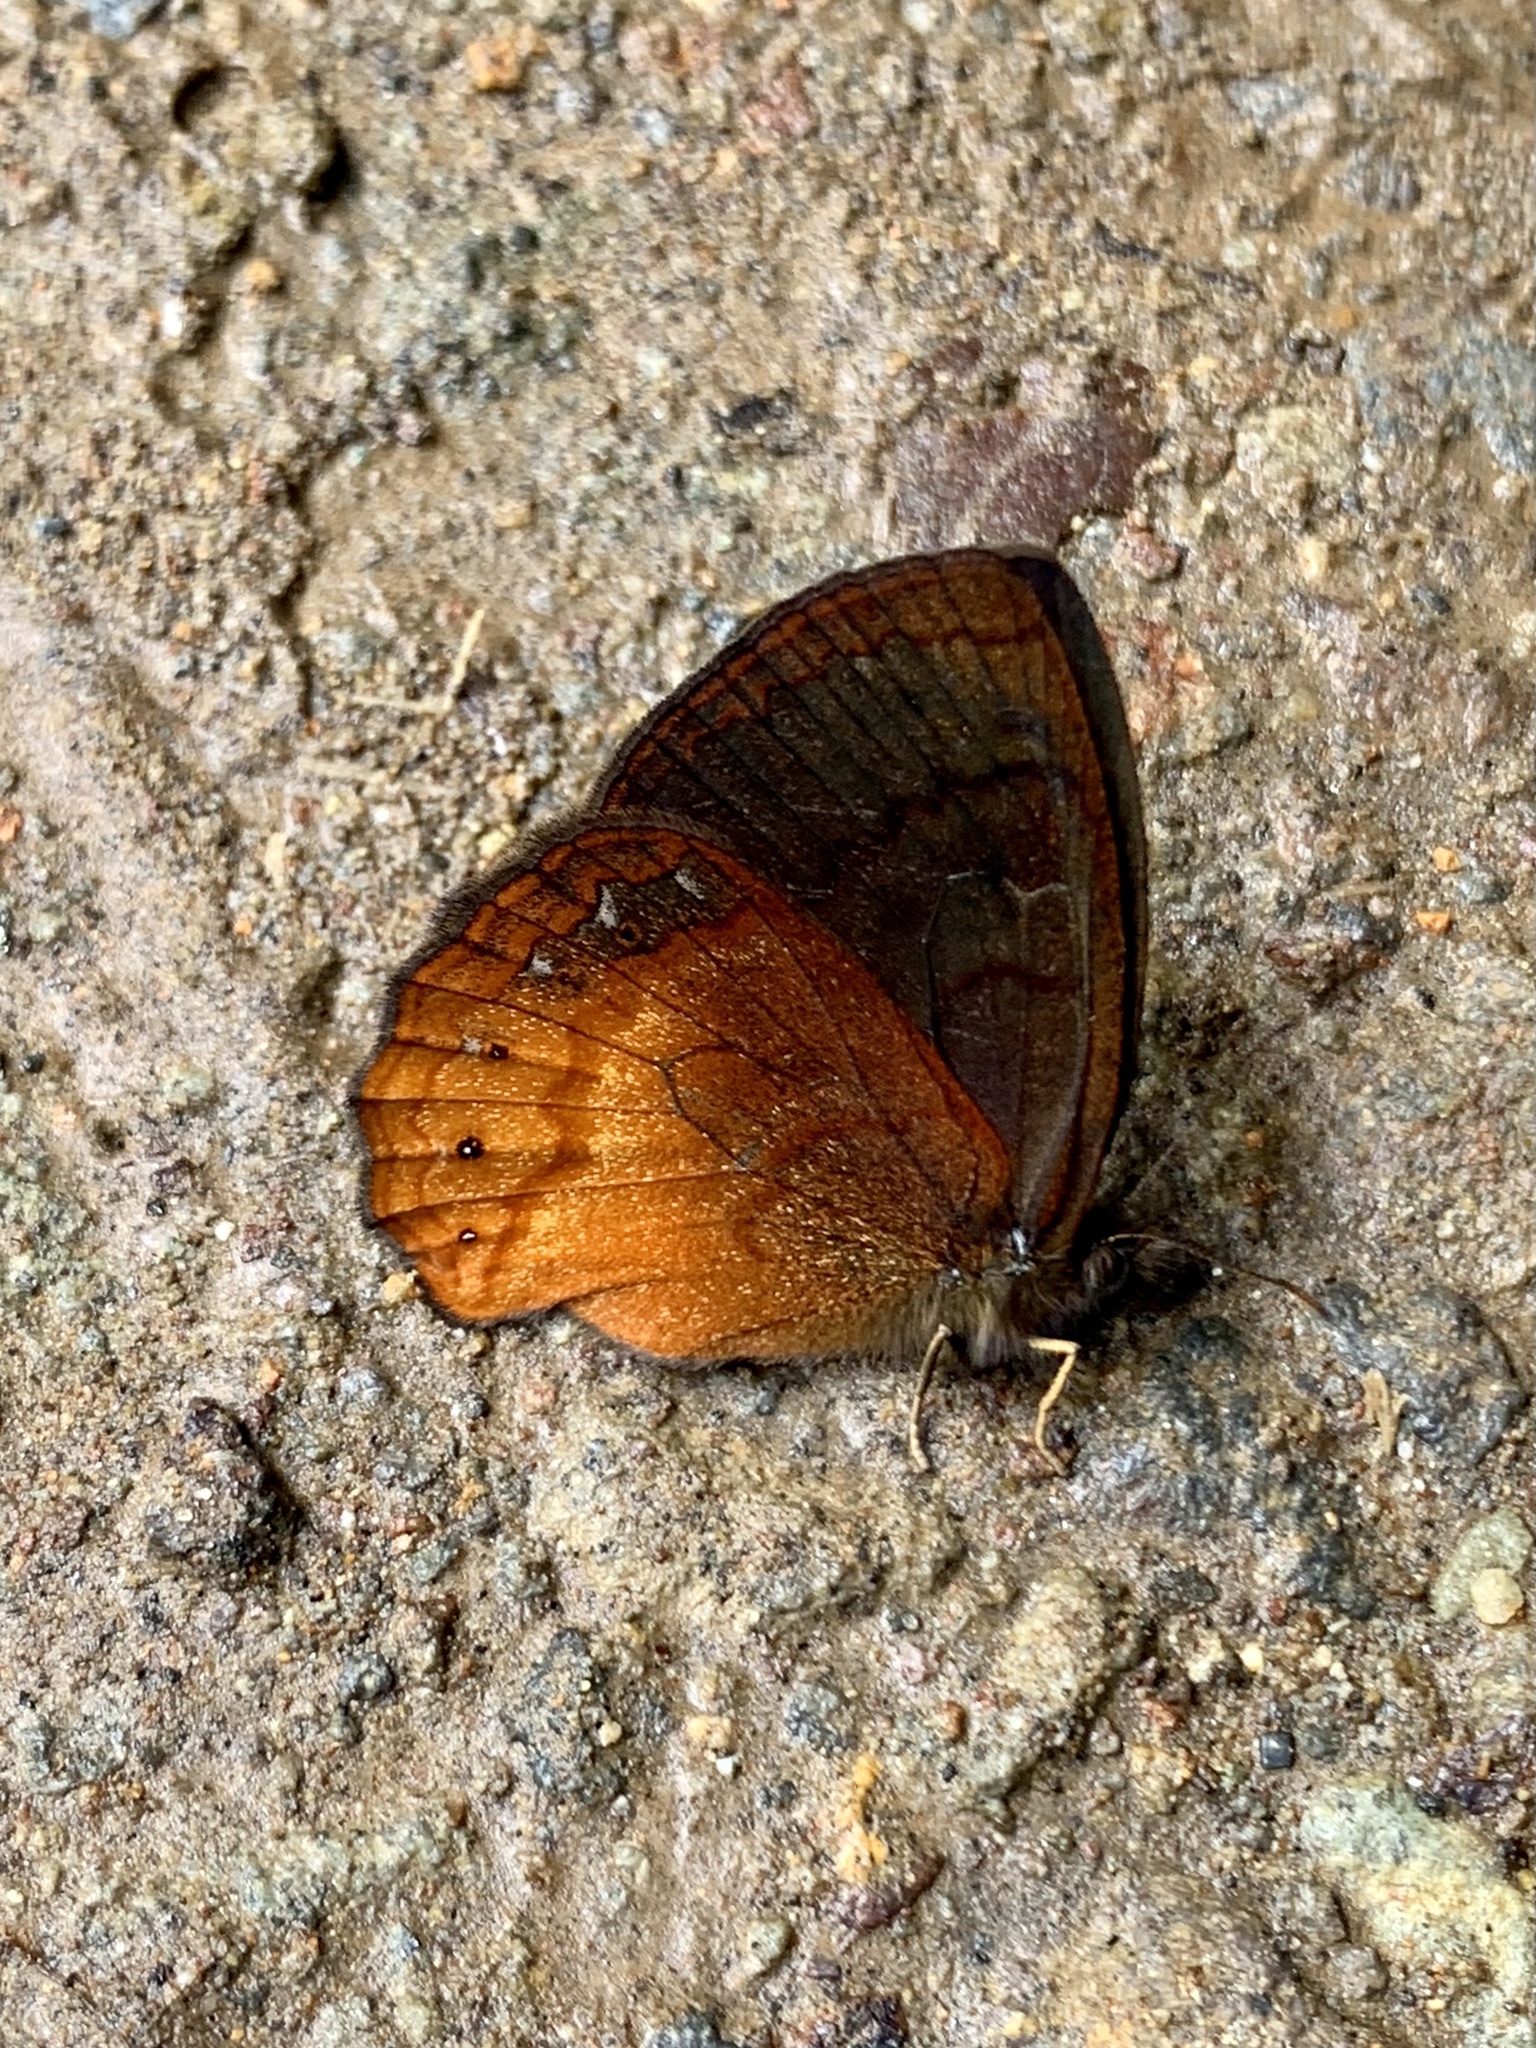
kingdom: Animalia
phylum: Arthropoda
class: Insecta
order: Lepidoptera
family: Nymphalidae
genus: Eretris
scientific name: Eretris apuleja
